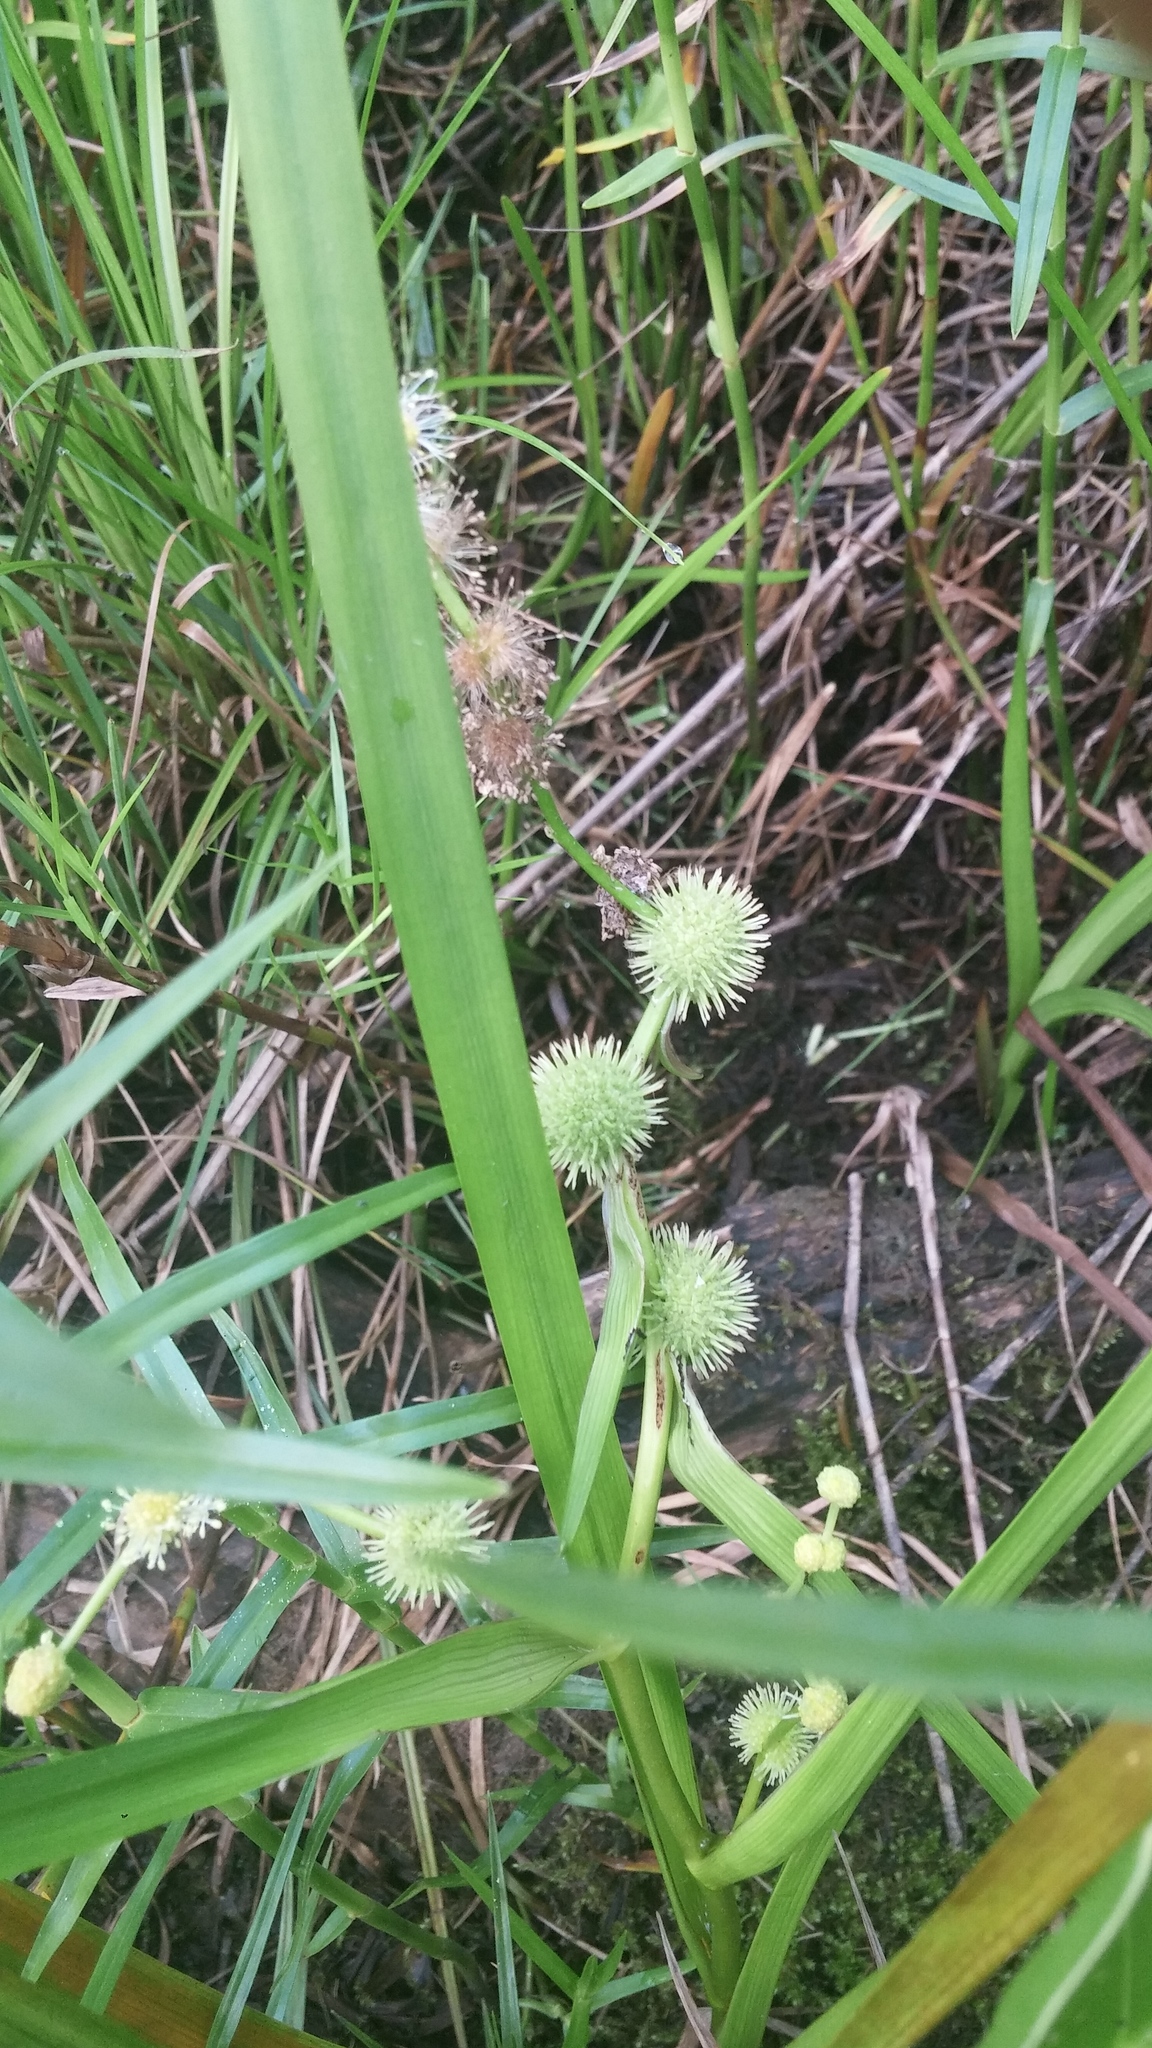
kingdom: Plantae
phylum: Tracheophyta
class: Liliopsida
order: Poales
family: Typhaceae
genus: Sparganium
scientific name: Sparganium americanum
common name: American burreed
